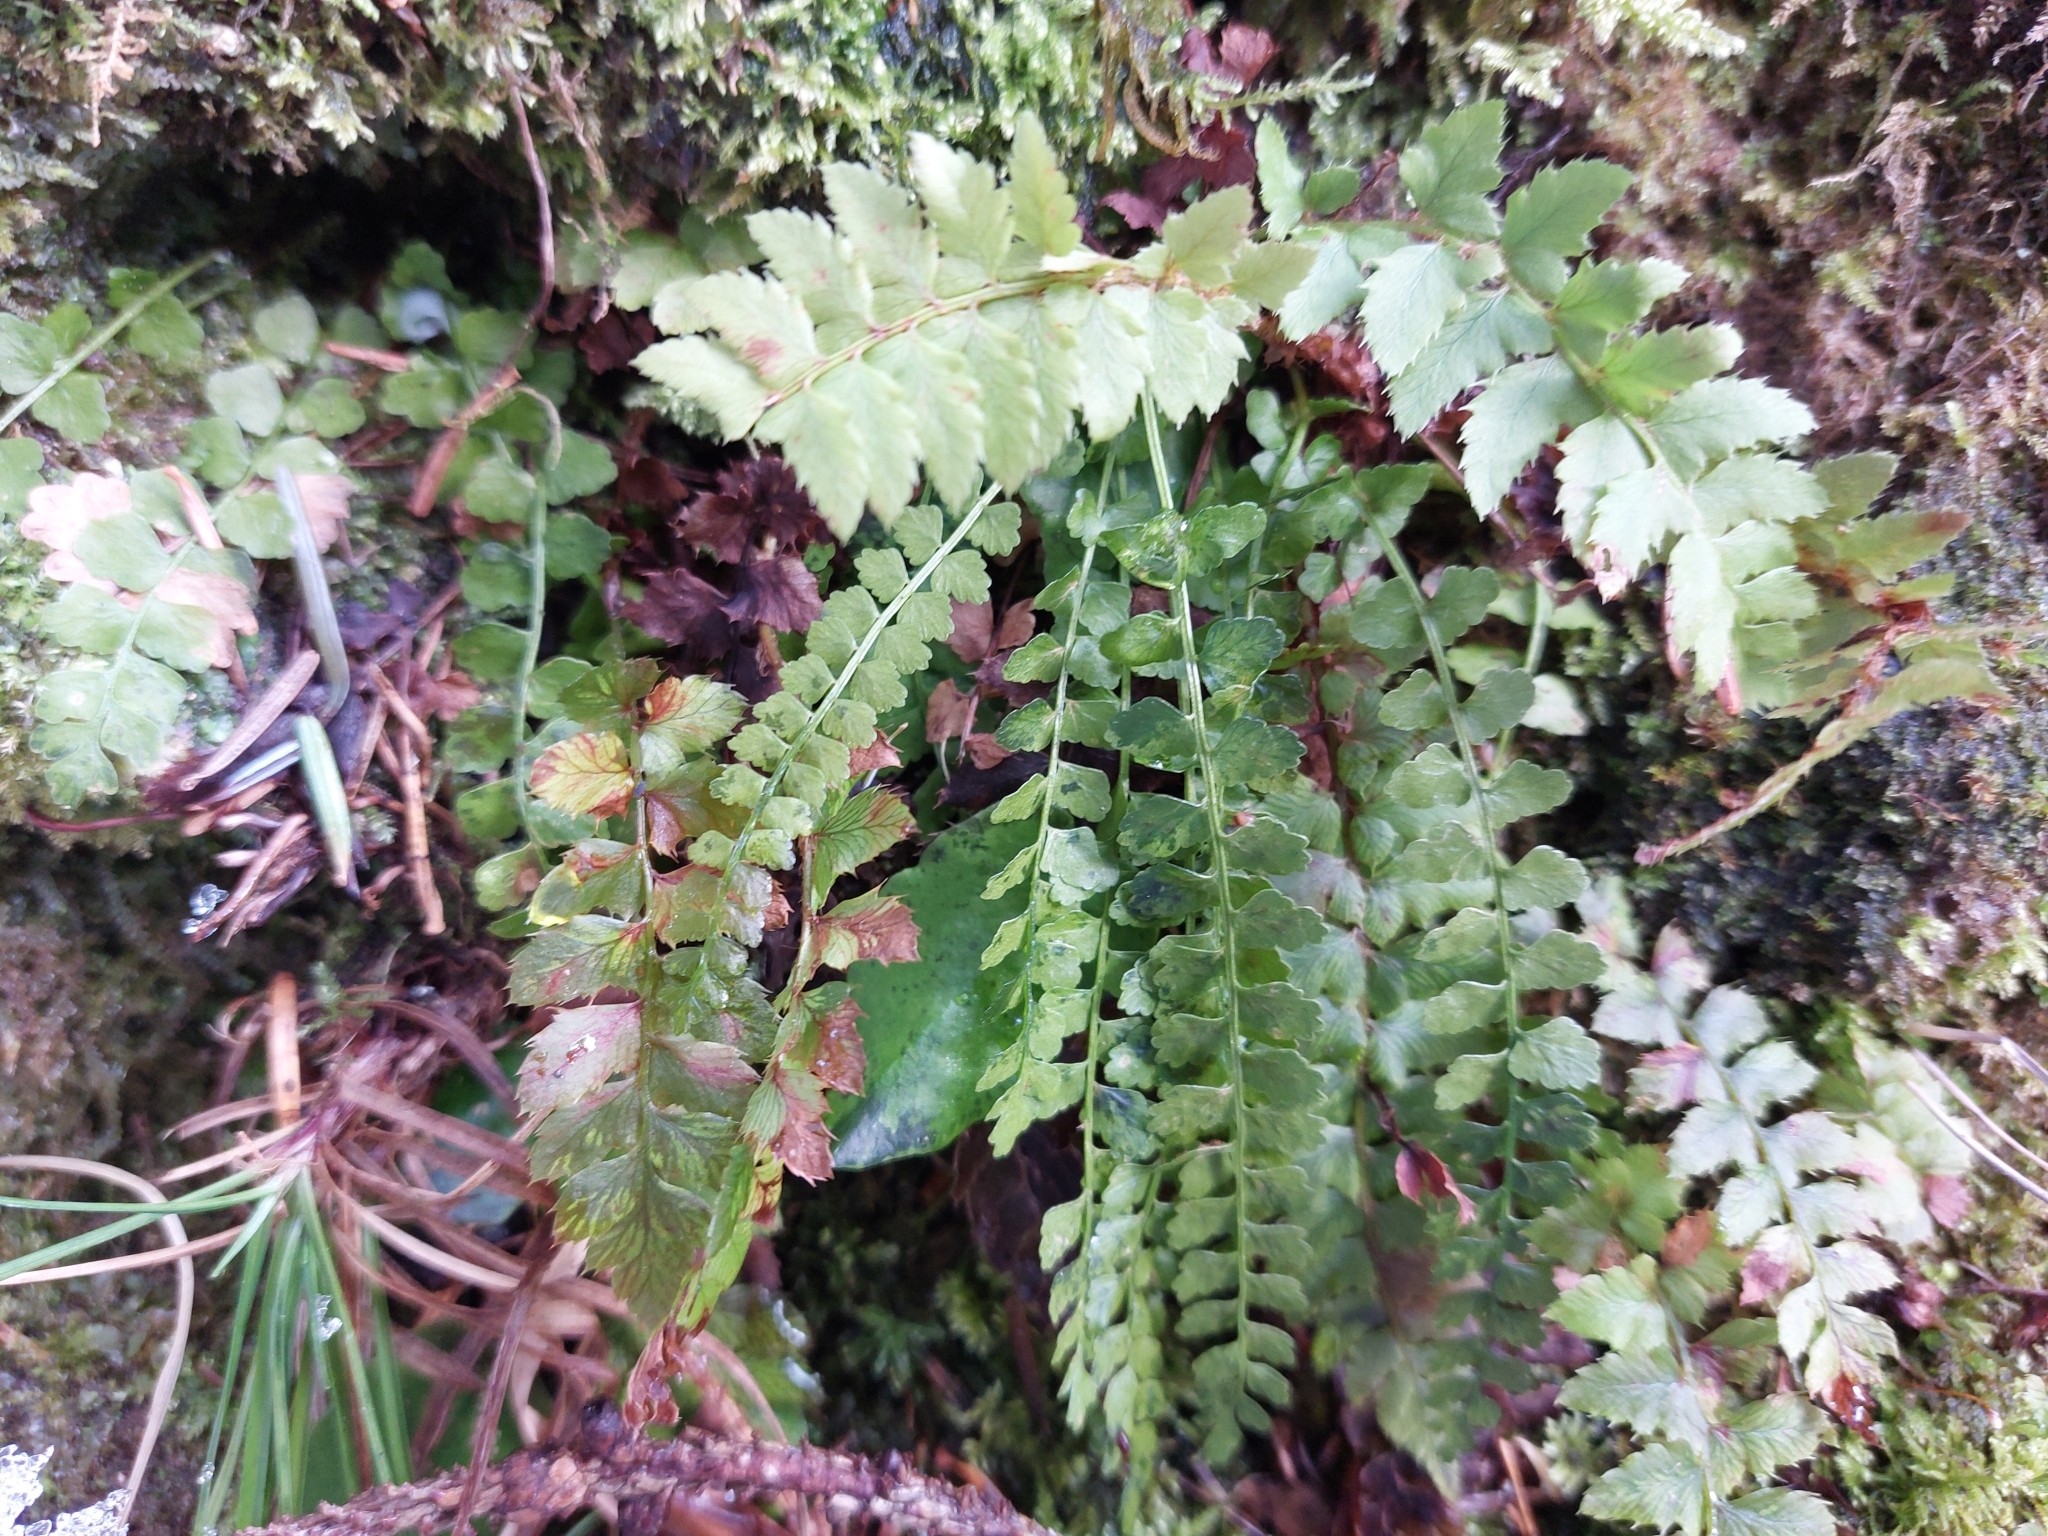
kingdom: Plantae
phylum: Tracheophyta
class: Polypodiopsida
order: Polypodiales
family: Aspleniaceae
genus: Asplenium
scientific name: Asplenium viride
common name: Green spleenwort
